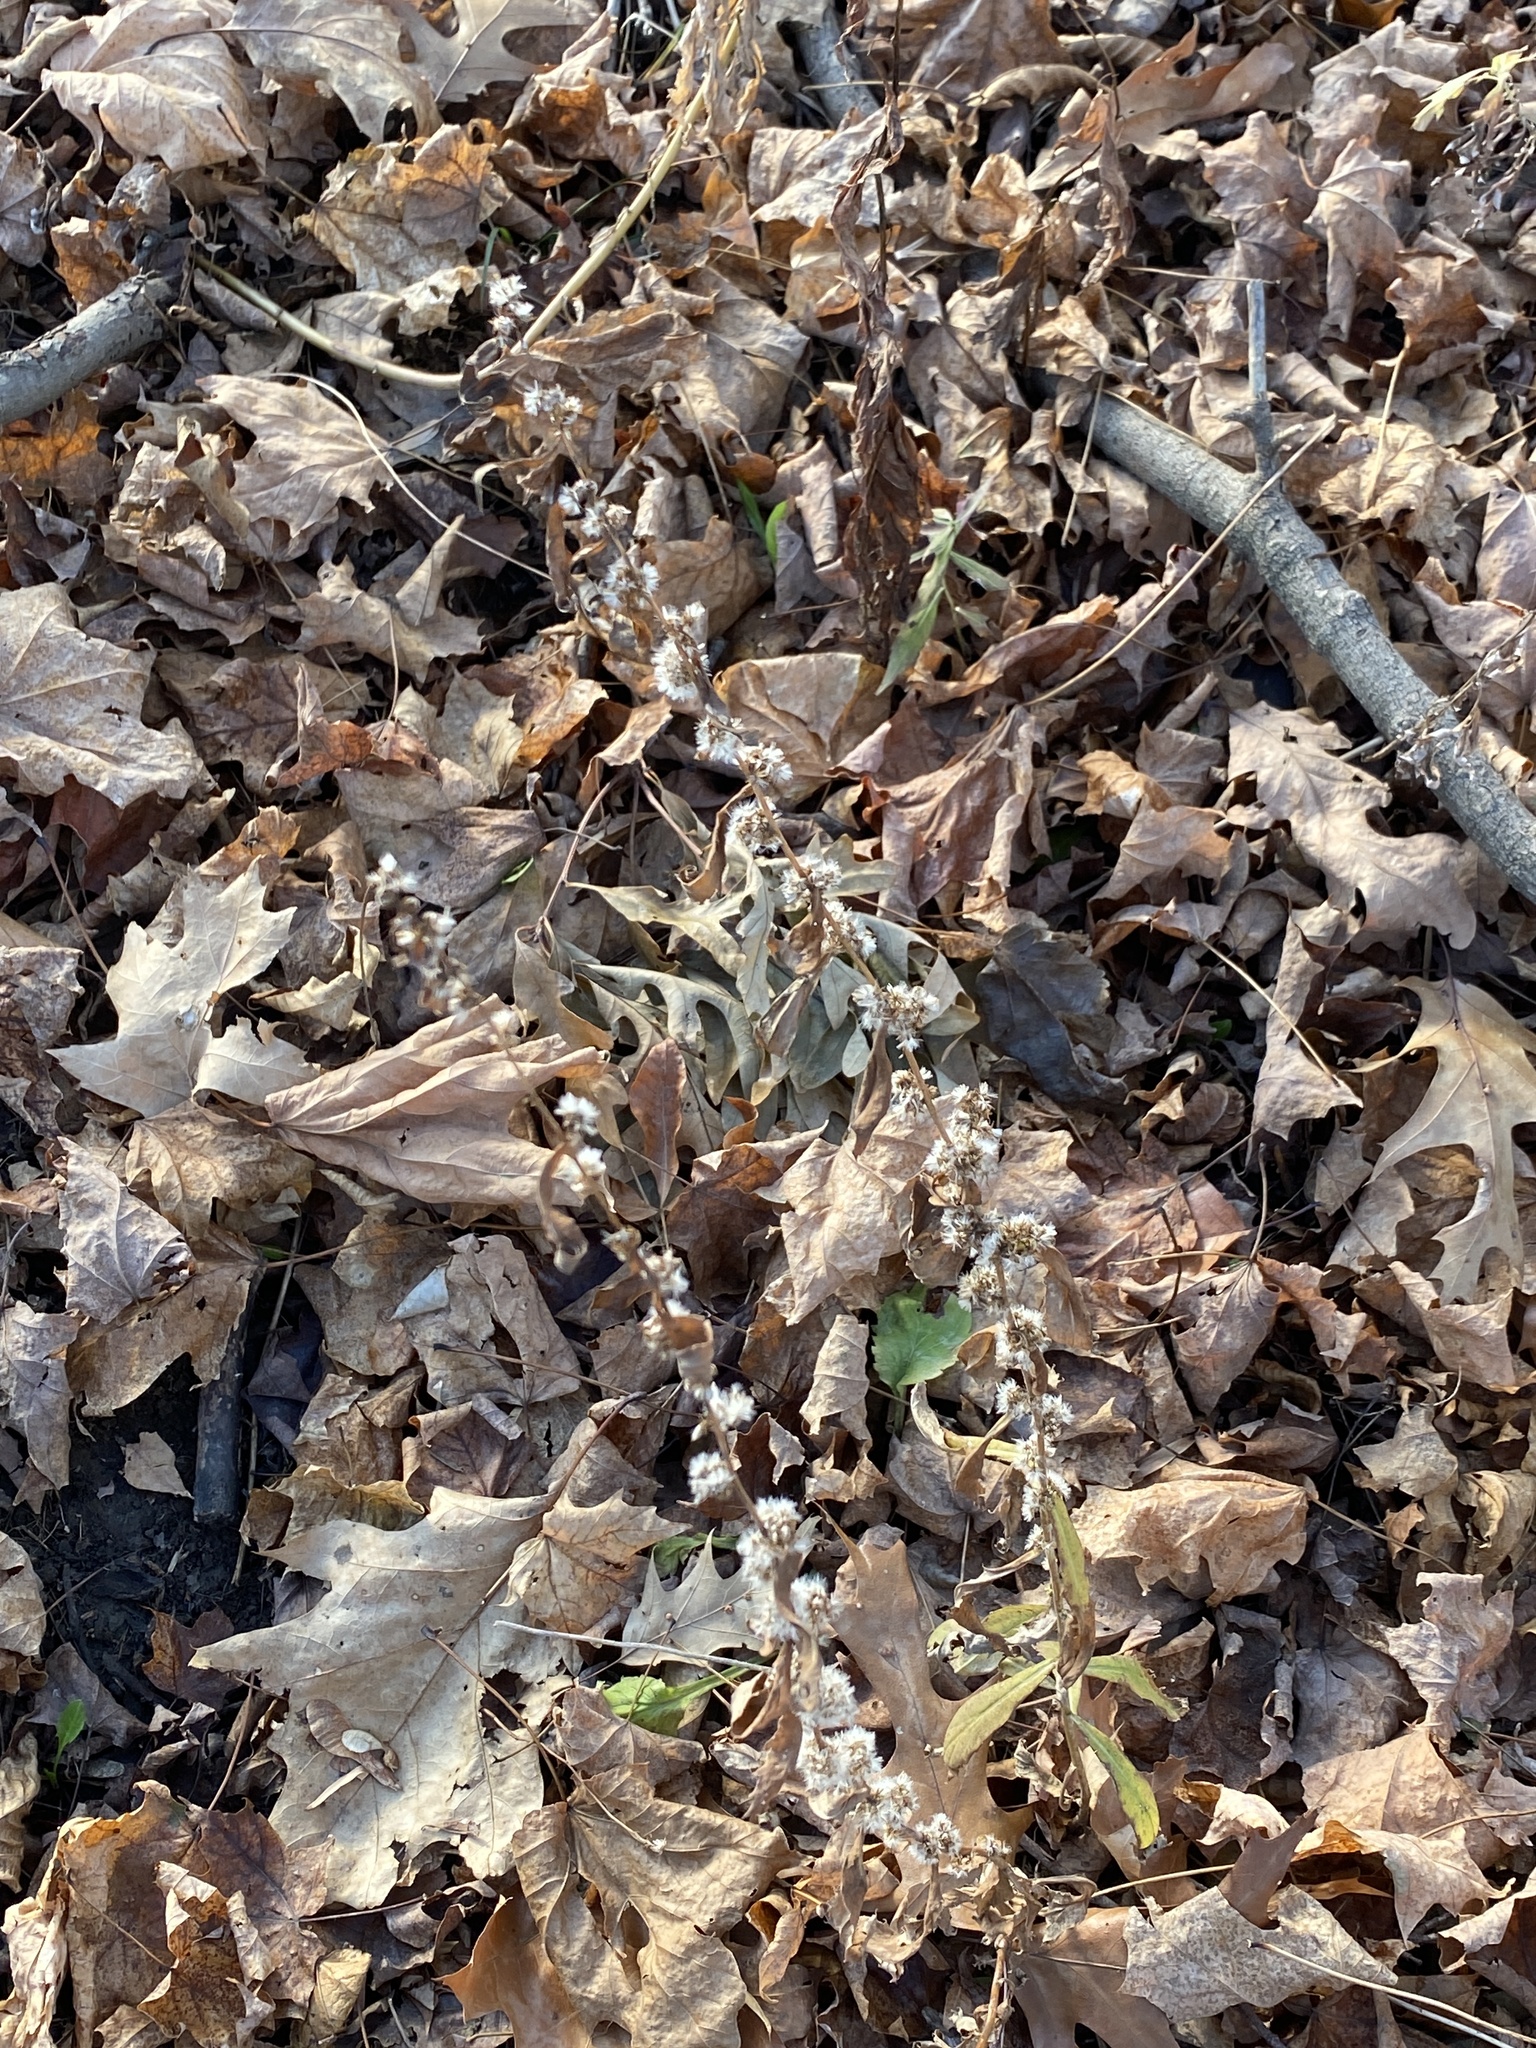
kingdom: Plantae
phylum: Tracheophyta
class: Magnoliopsida
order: Asterales
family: Asteraceae
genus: Solidago
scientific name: Solidago caesia
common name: Woodland goldenrod
